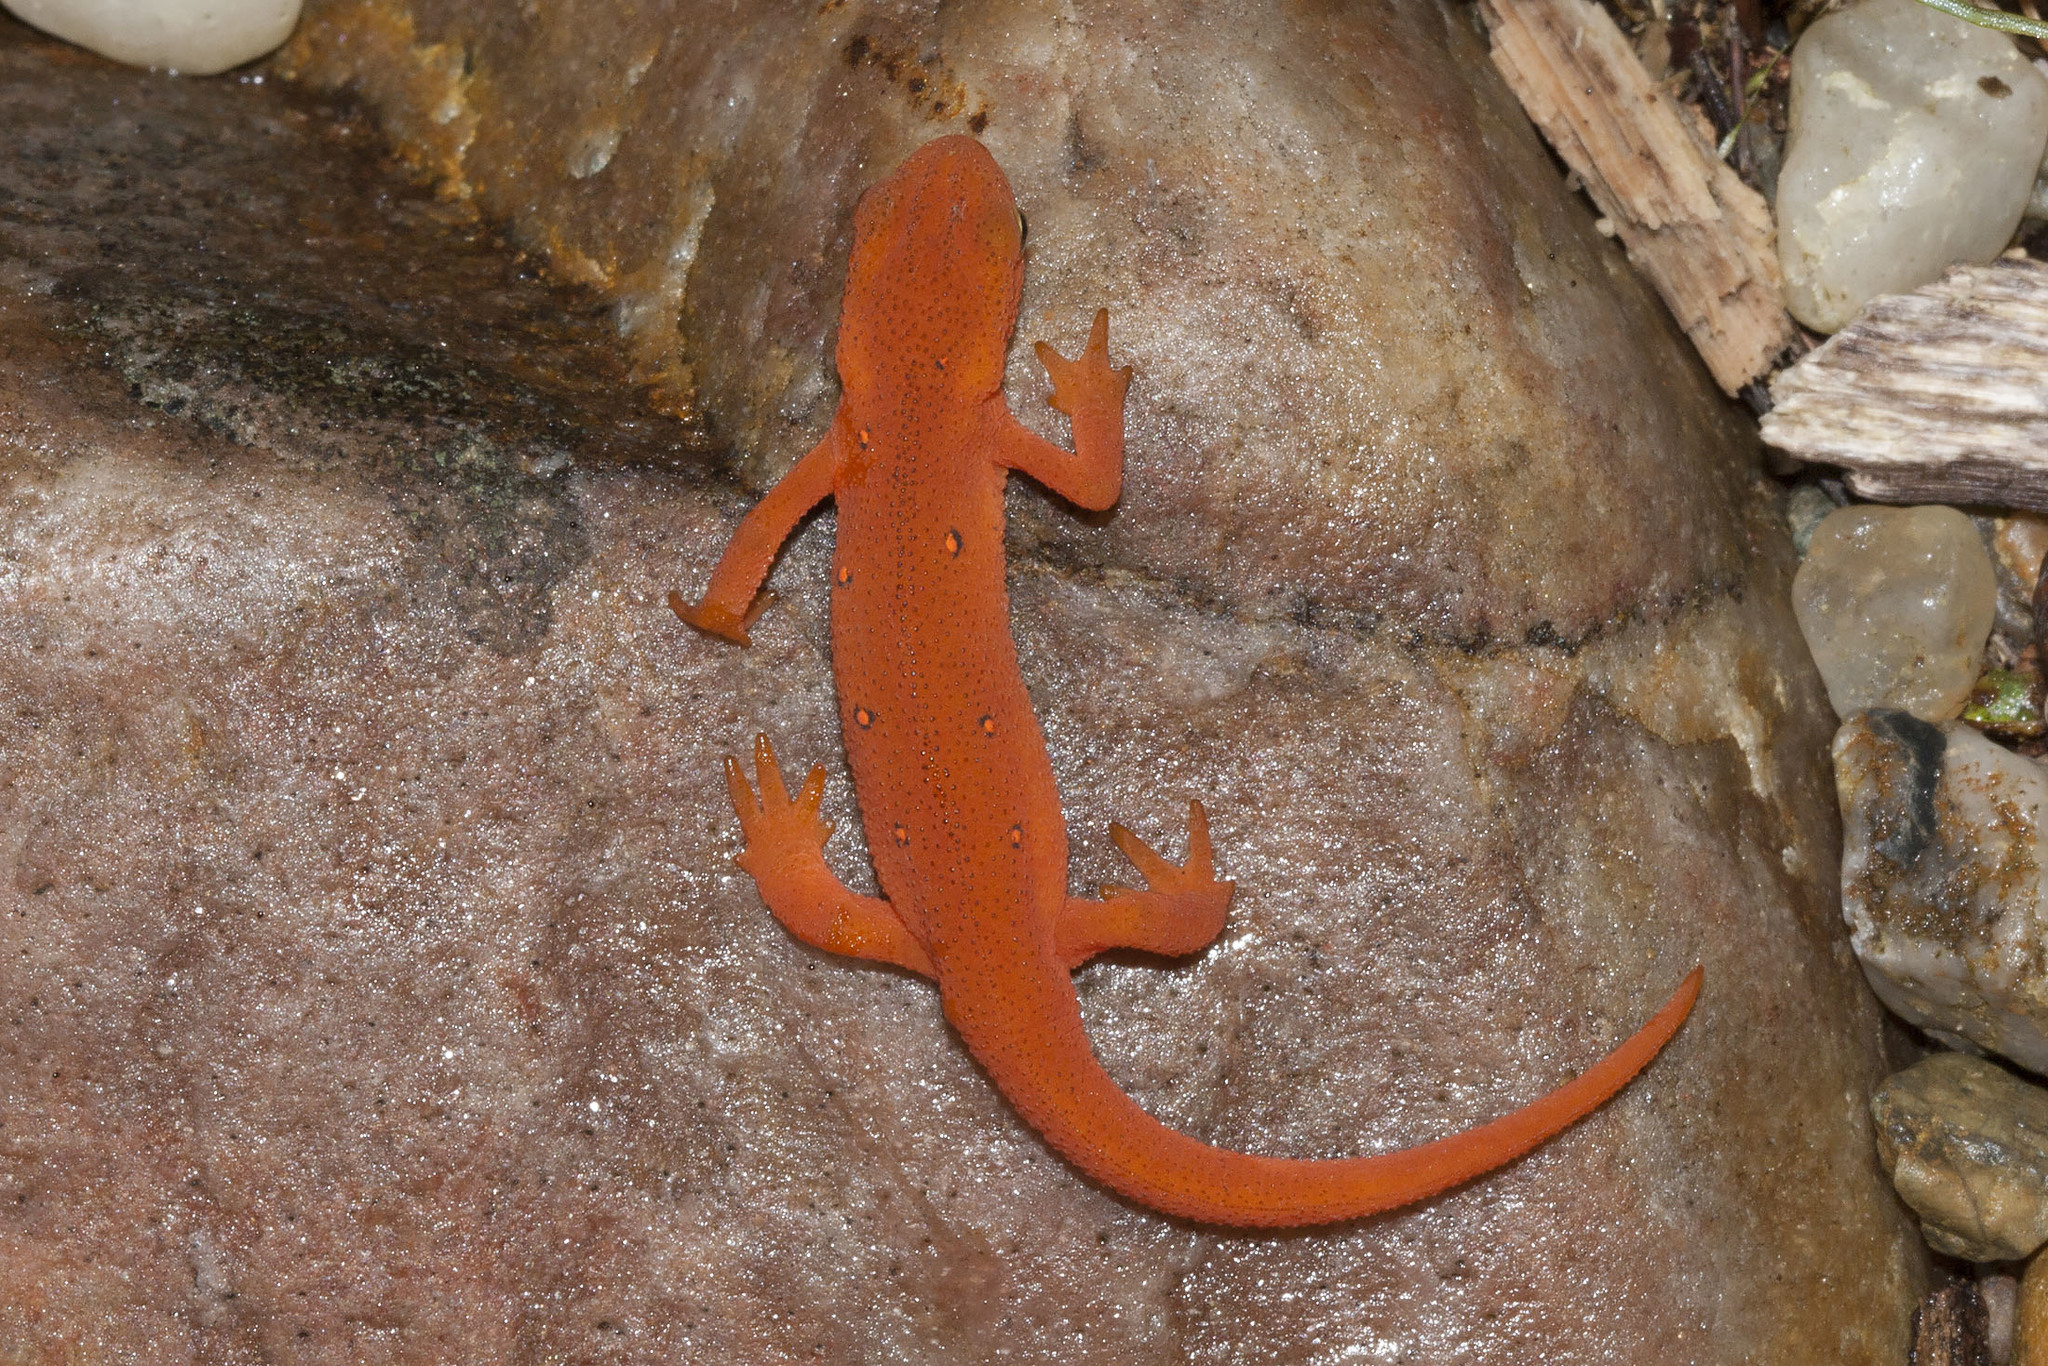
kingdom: Animalia
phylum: Chordata
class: Amphibia
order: Caudata
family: Salamandridae
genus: Notophthalmus
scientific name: Notophthalmus viridescens
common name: Eastern newt
